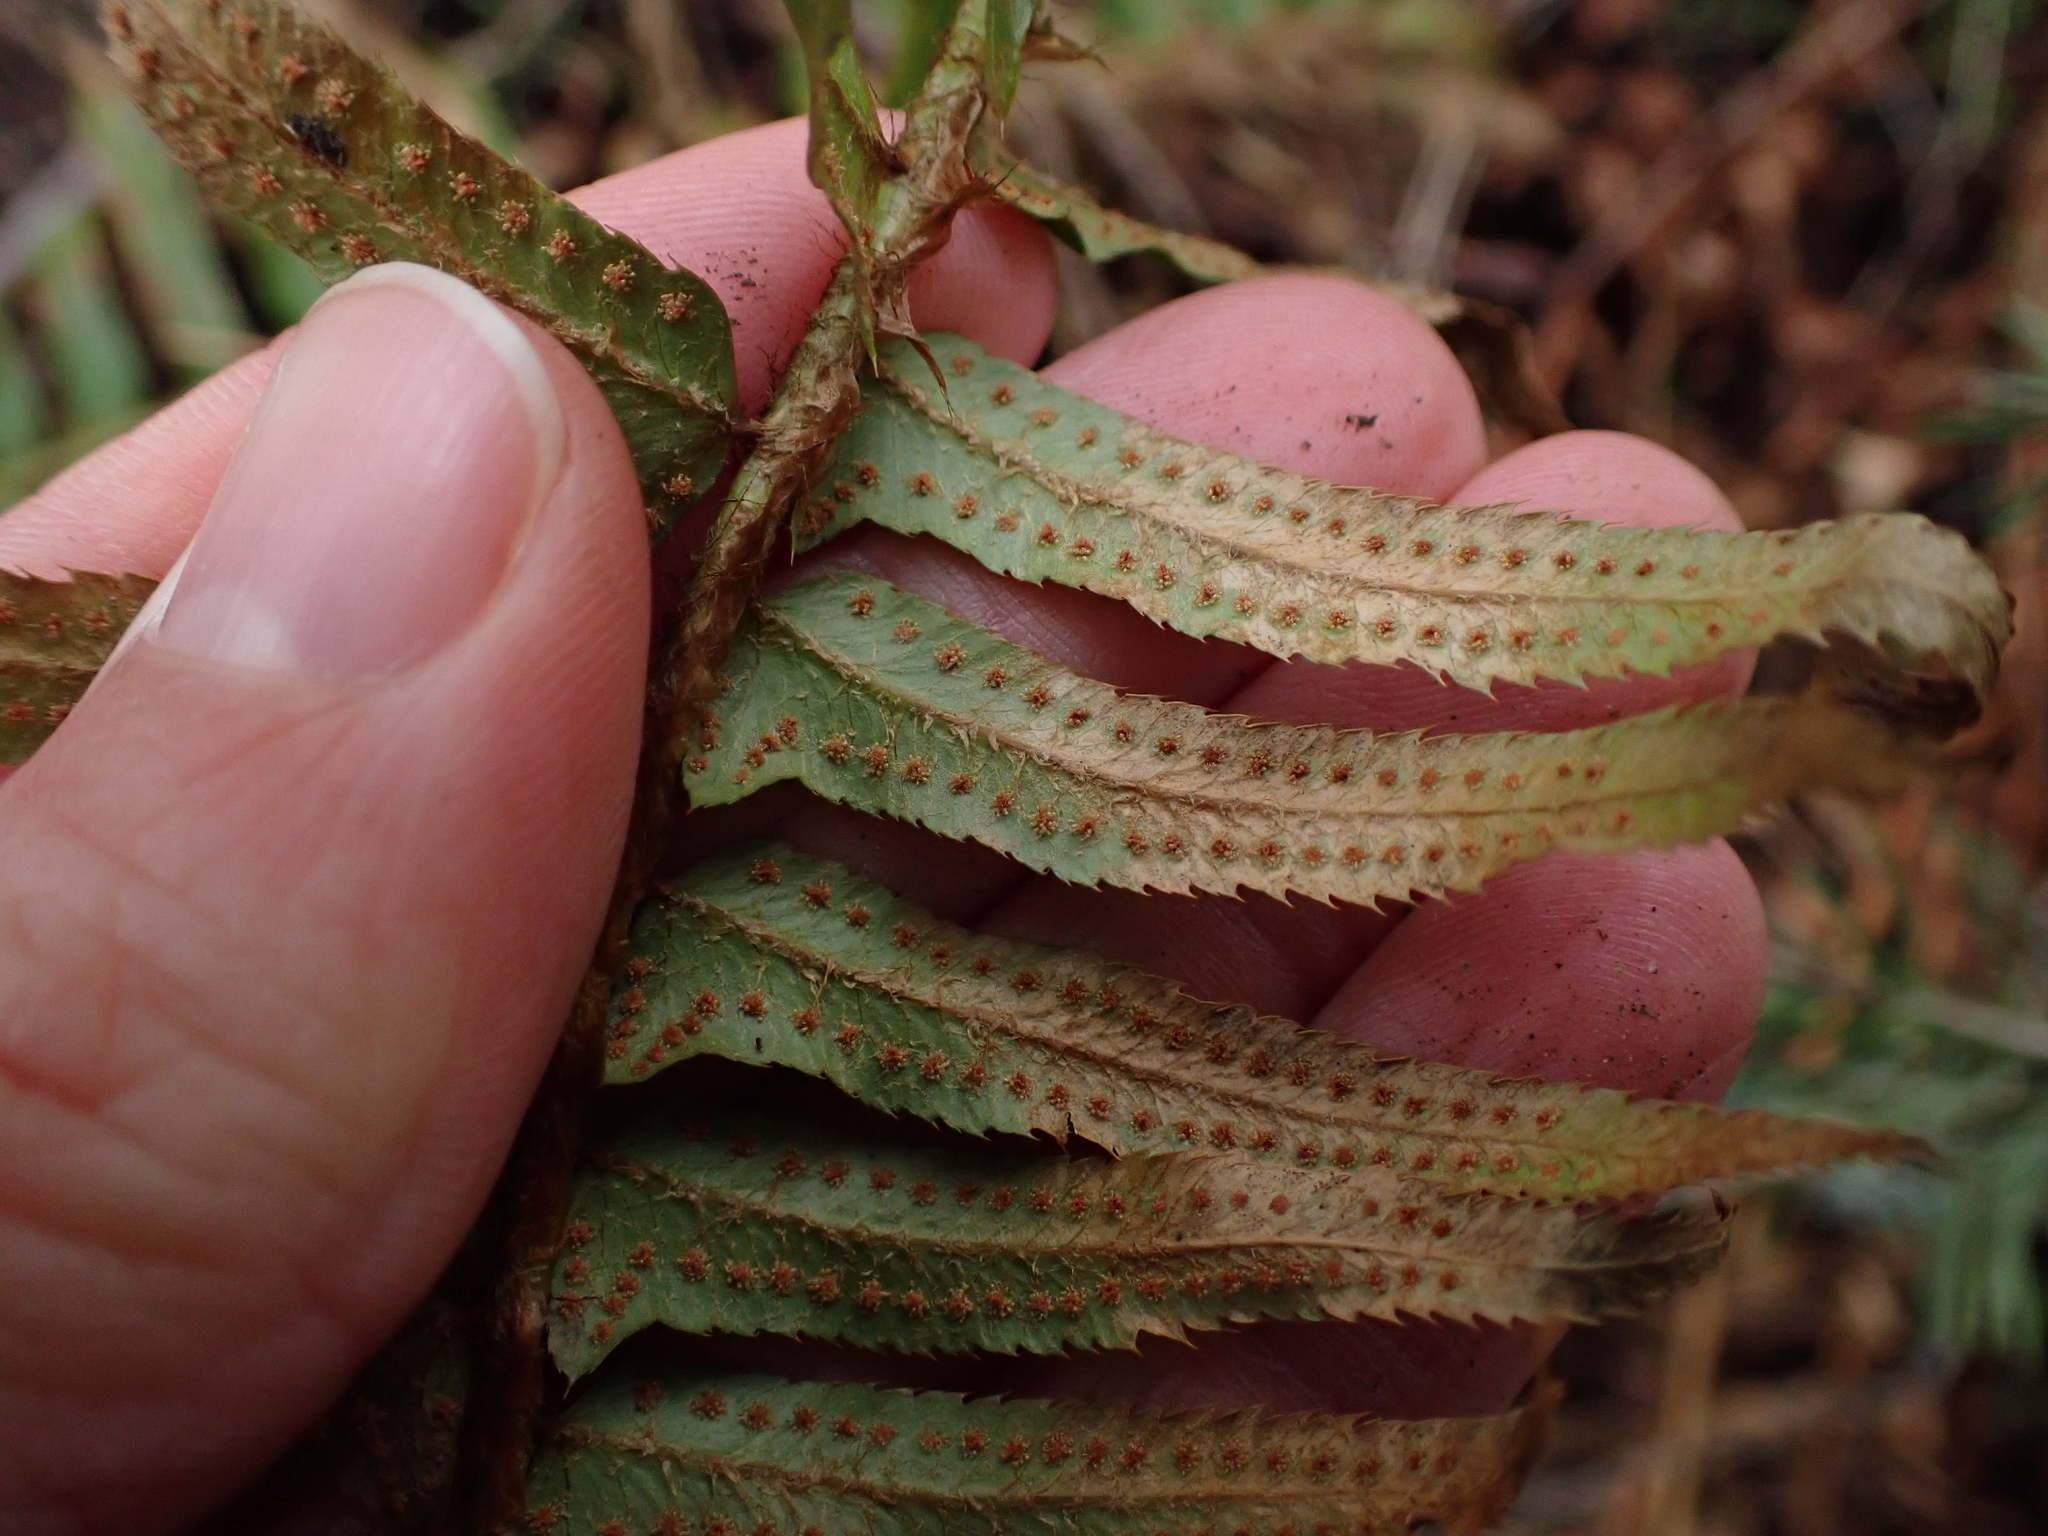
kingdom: Plantae
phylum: Tracheophyta
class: Polypodiopsida
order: Polypodiales
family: Dryopteridaceae
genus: Polystichum
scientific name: Polystichum munitum
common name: Western sword-fern
